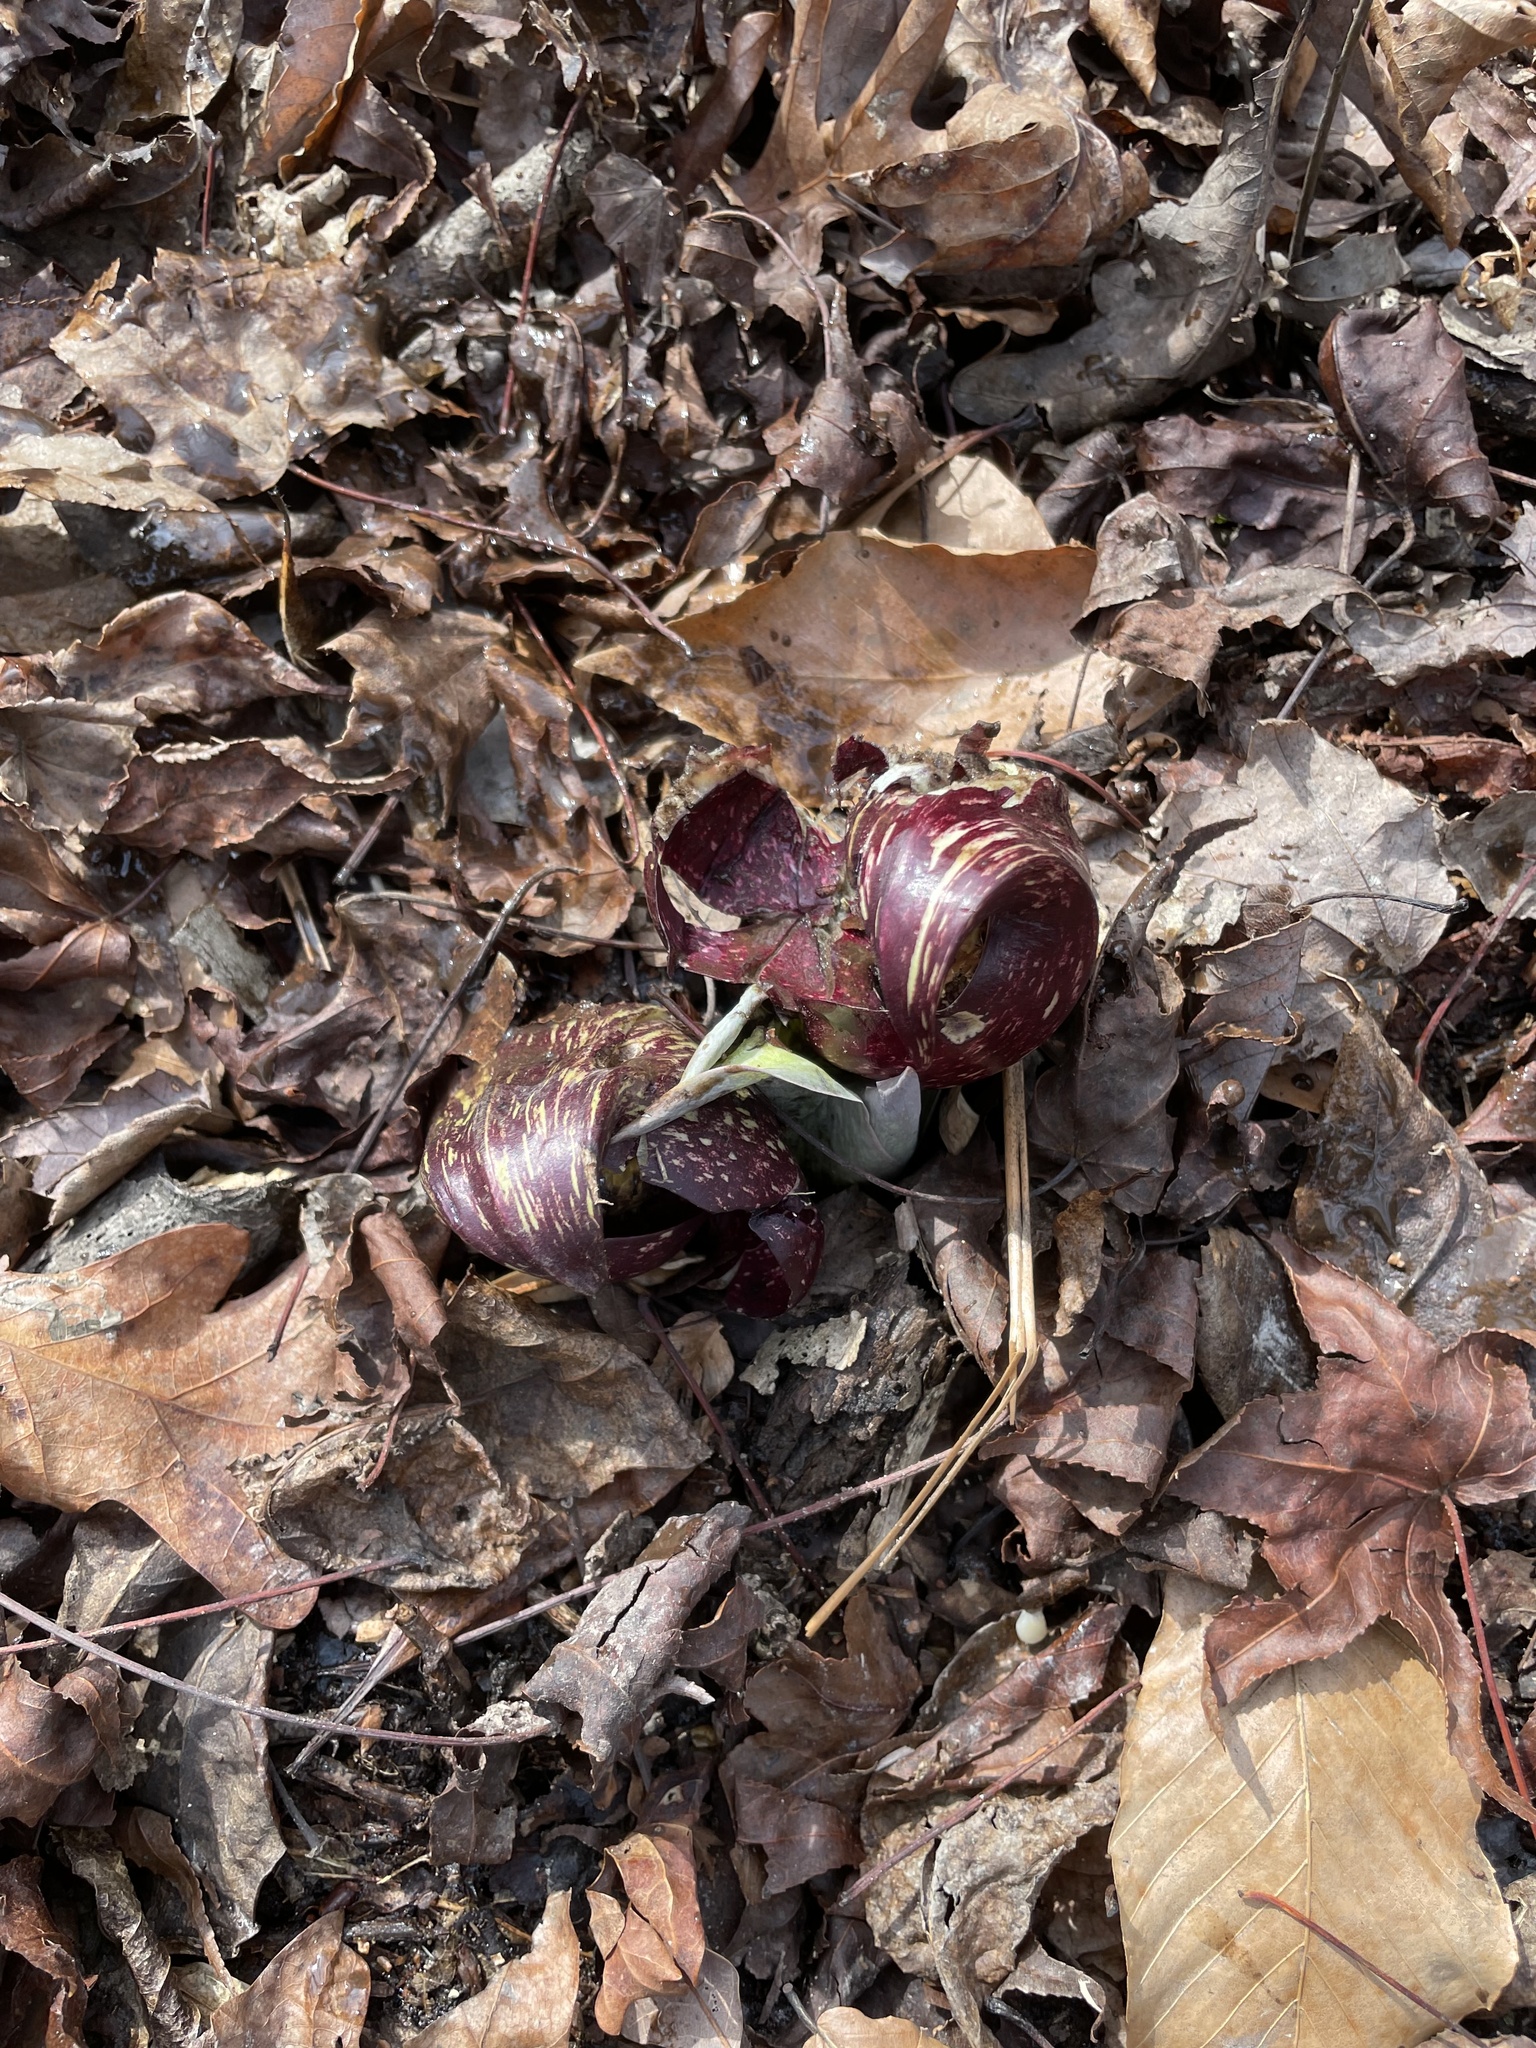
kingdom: Plantae
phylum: Tracheophyta
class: Liliopsida
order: Alismatales
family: Araceae
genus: Symplocarpus
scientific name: Symplocarpus foetidus
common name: Eastern skunk cabbage
